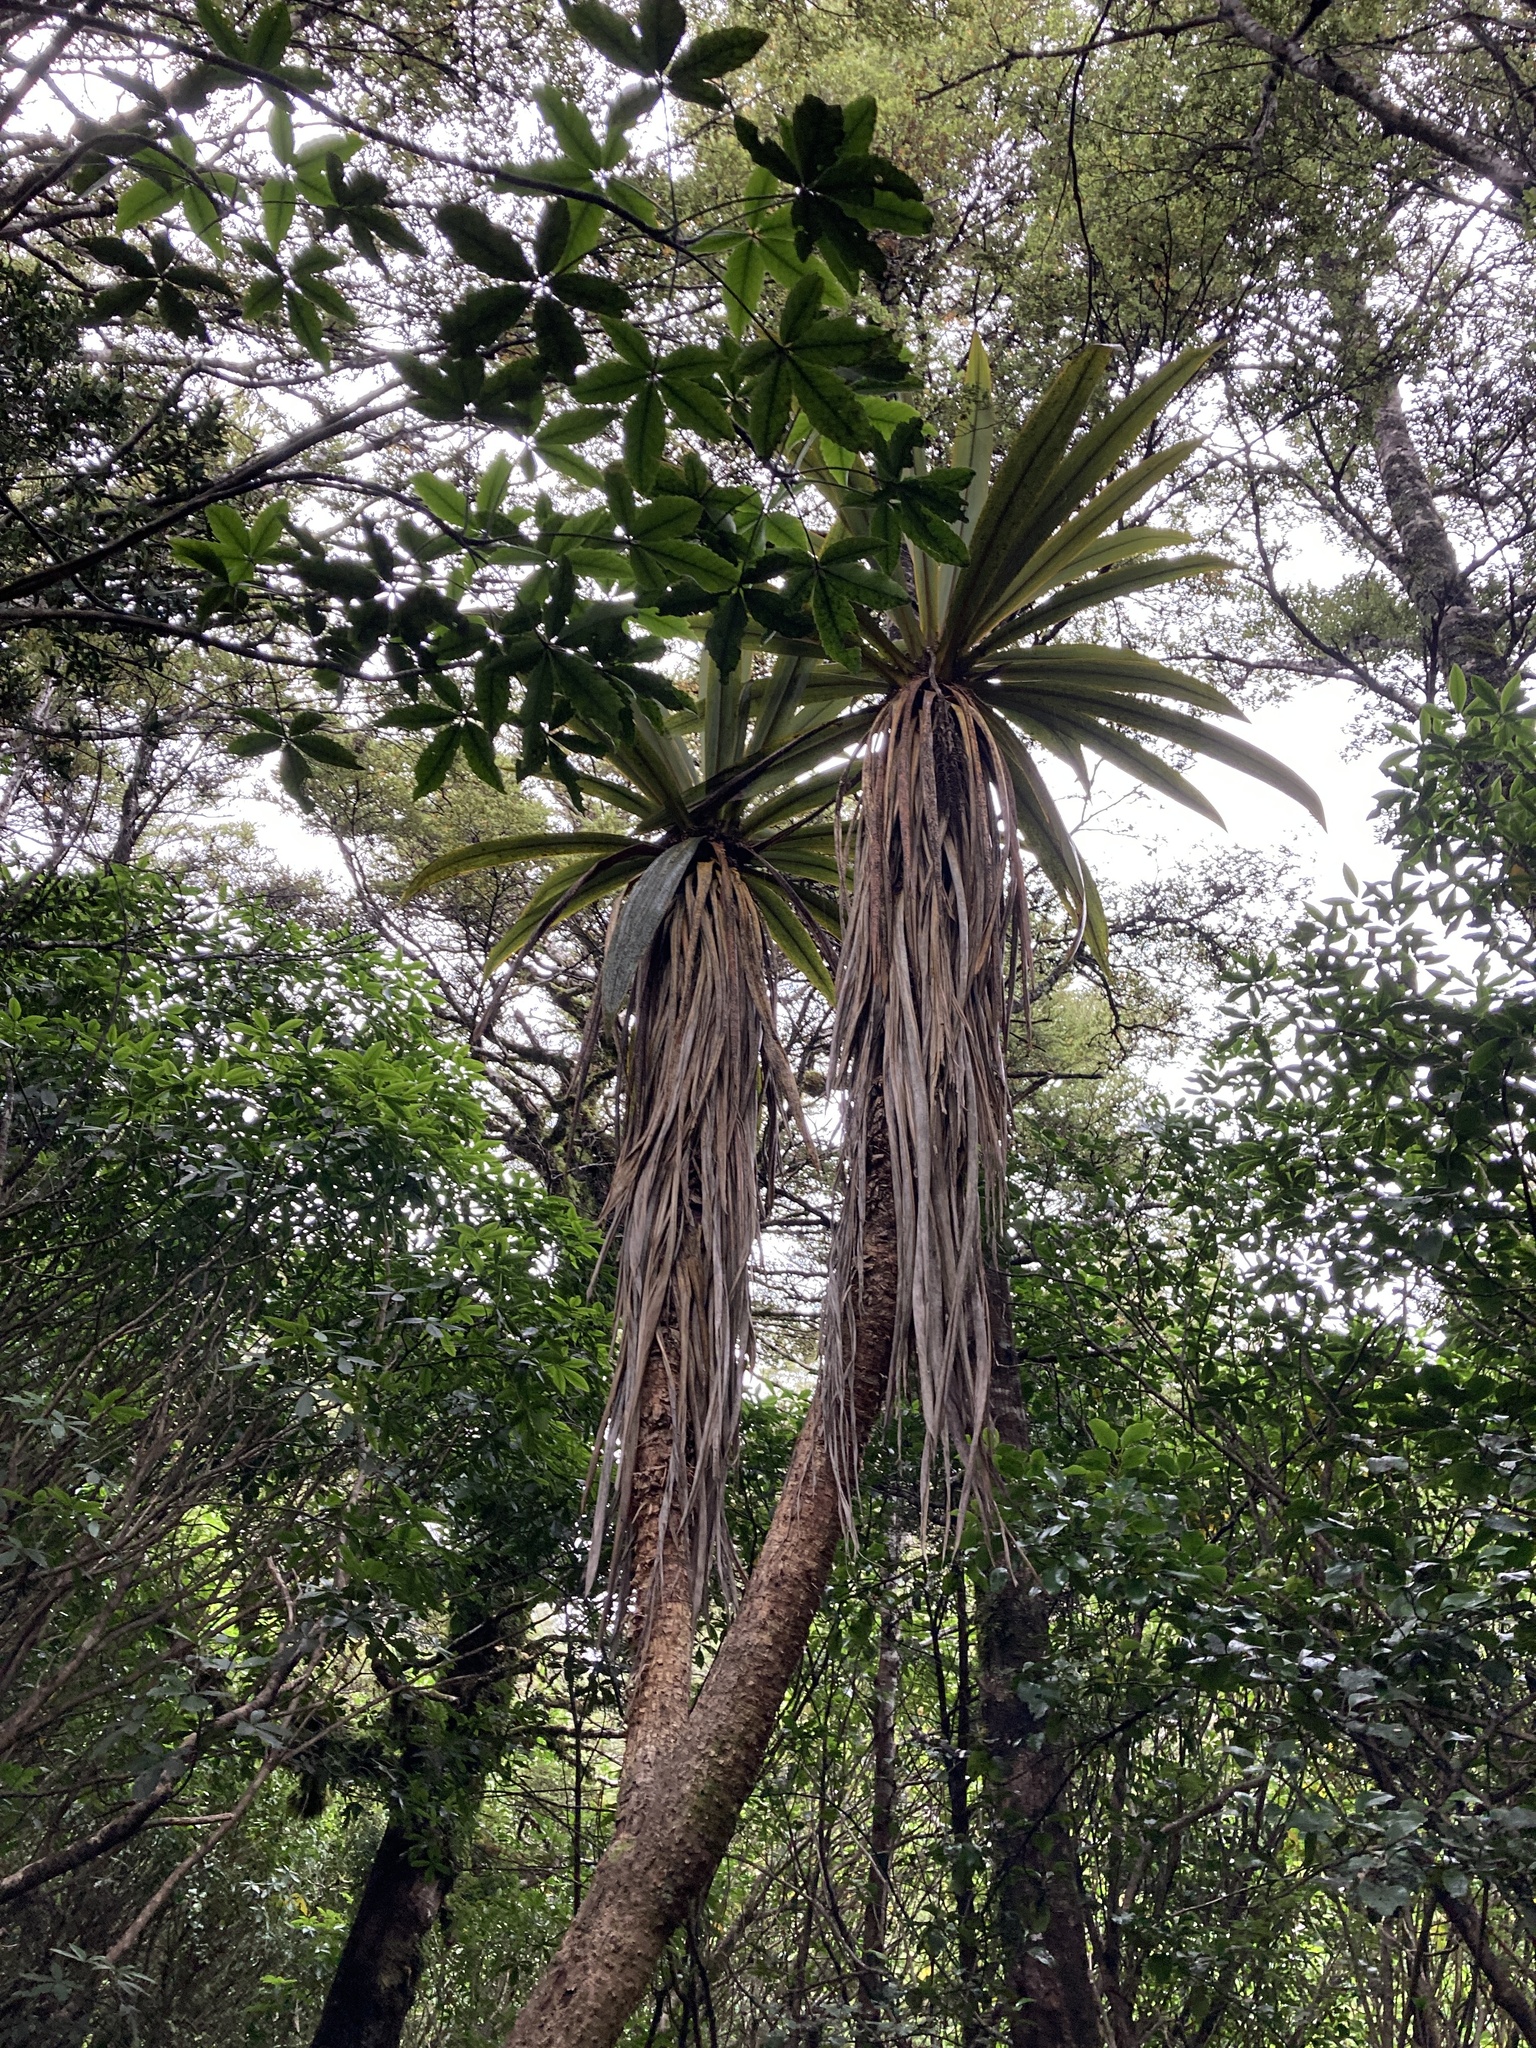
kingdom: Plantae
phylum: Tracheophyta
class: Liliopsida
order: Asparagales
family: Asparagaceae
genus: Cordyline
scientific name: Cordyline indivisa
